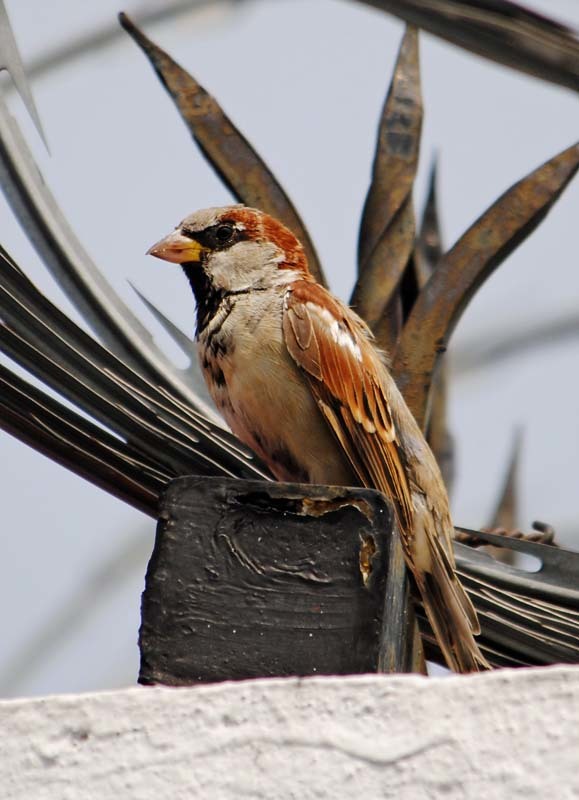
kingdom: Animalia
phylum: Chordata
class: Aves
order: Passeriformes
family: Passeridae
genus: Passer
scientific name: Passer domesticus
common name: House sparrow
